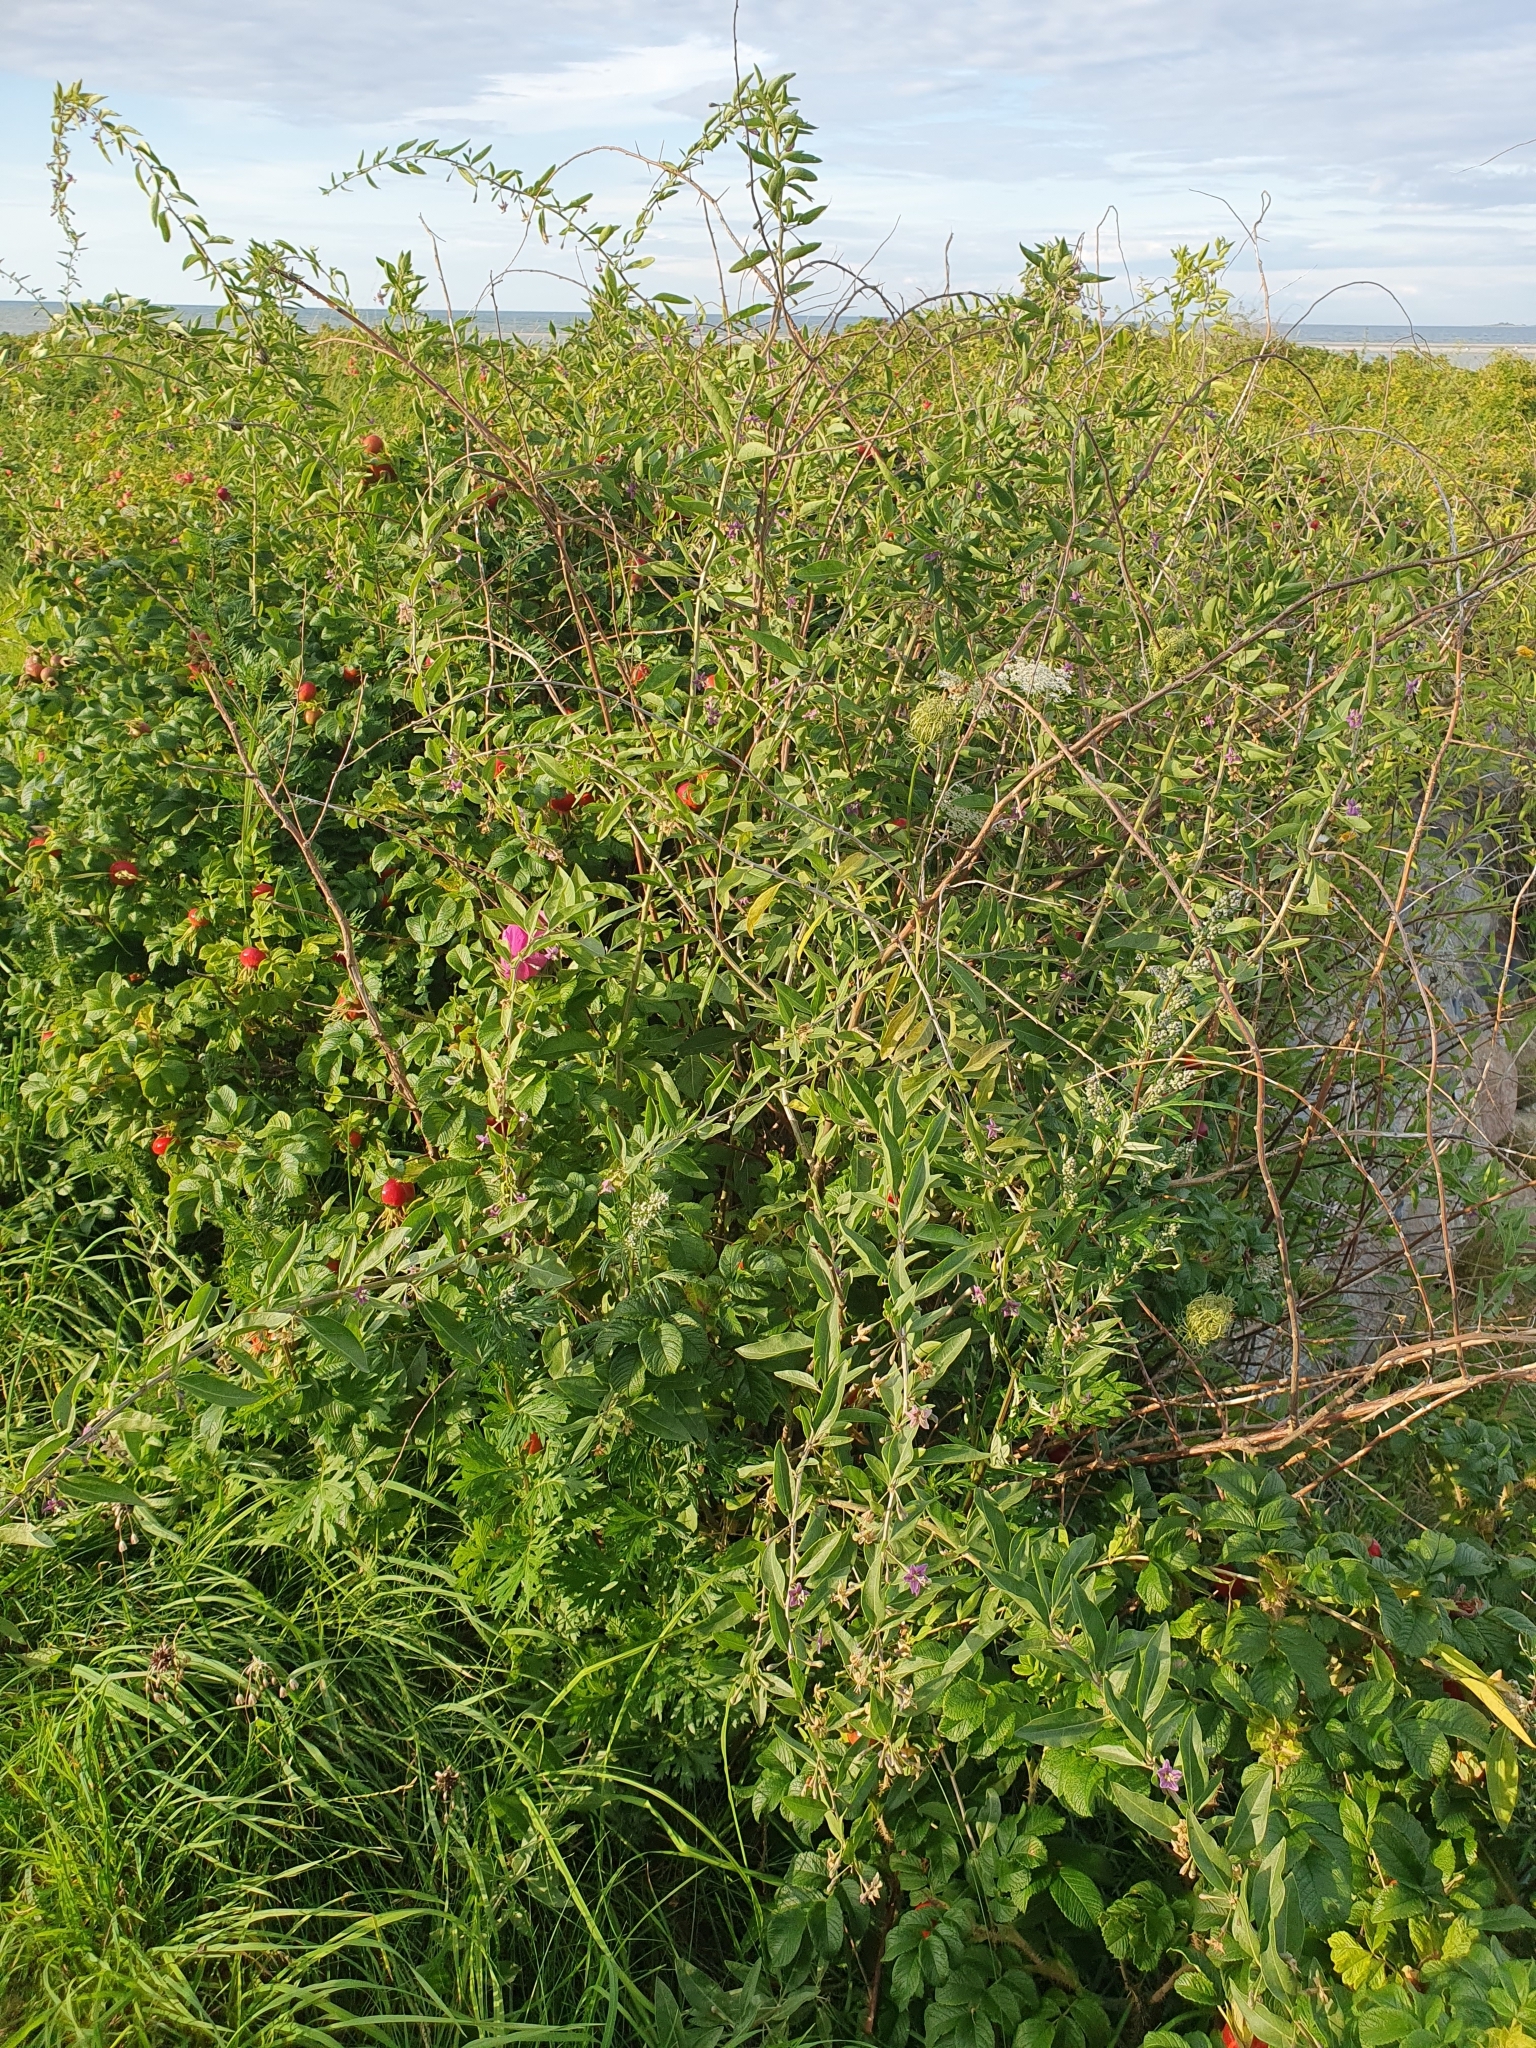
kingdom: Plantae
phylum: Tracheophyta
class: Magnoliopsida
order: Solanales
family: Solanaceae
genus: Lycium
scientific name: Lycium barbarum
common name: Duke of argyll's teaplant
